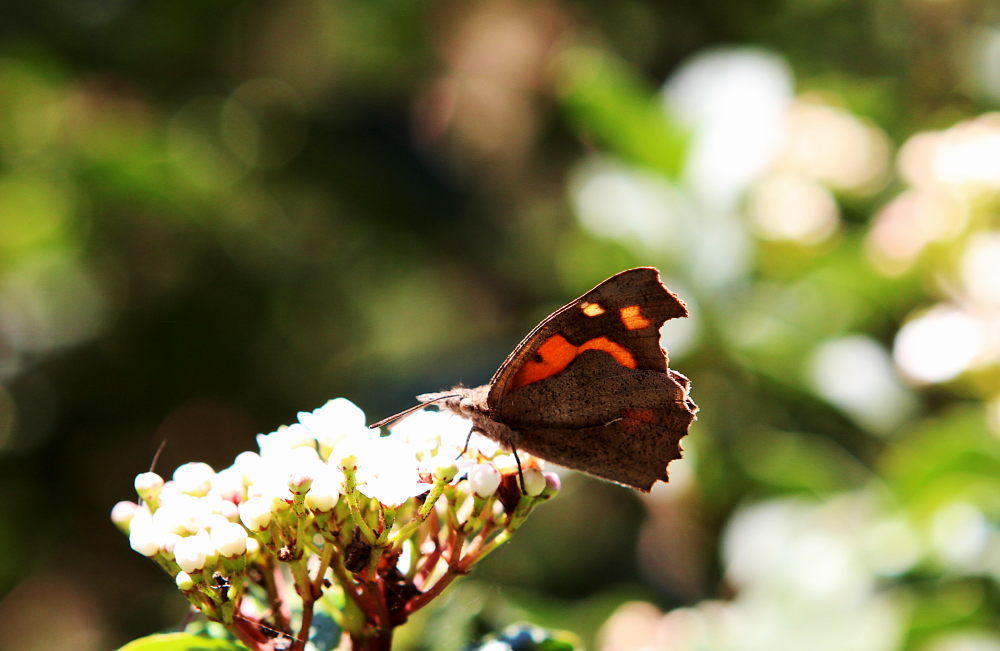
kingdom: Animalia
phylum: Arthropoda
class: Insecta
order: Lepidoptera
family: Nymphalidae
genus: Libythea
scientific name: Libythea celtis
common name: Nettle-tree butterfly
